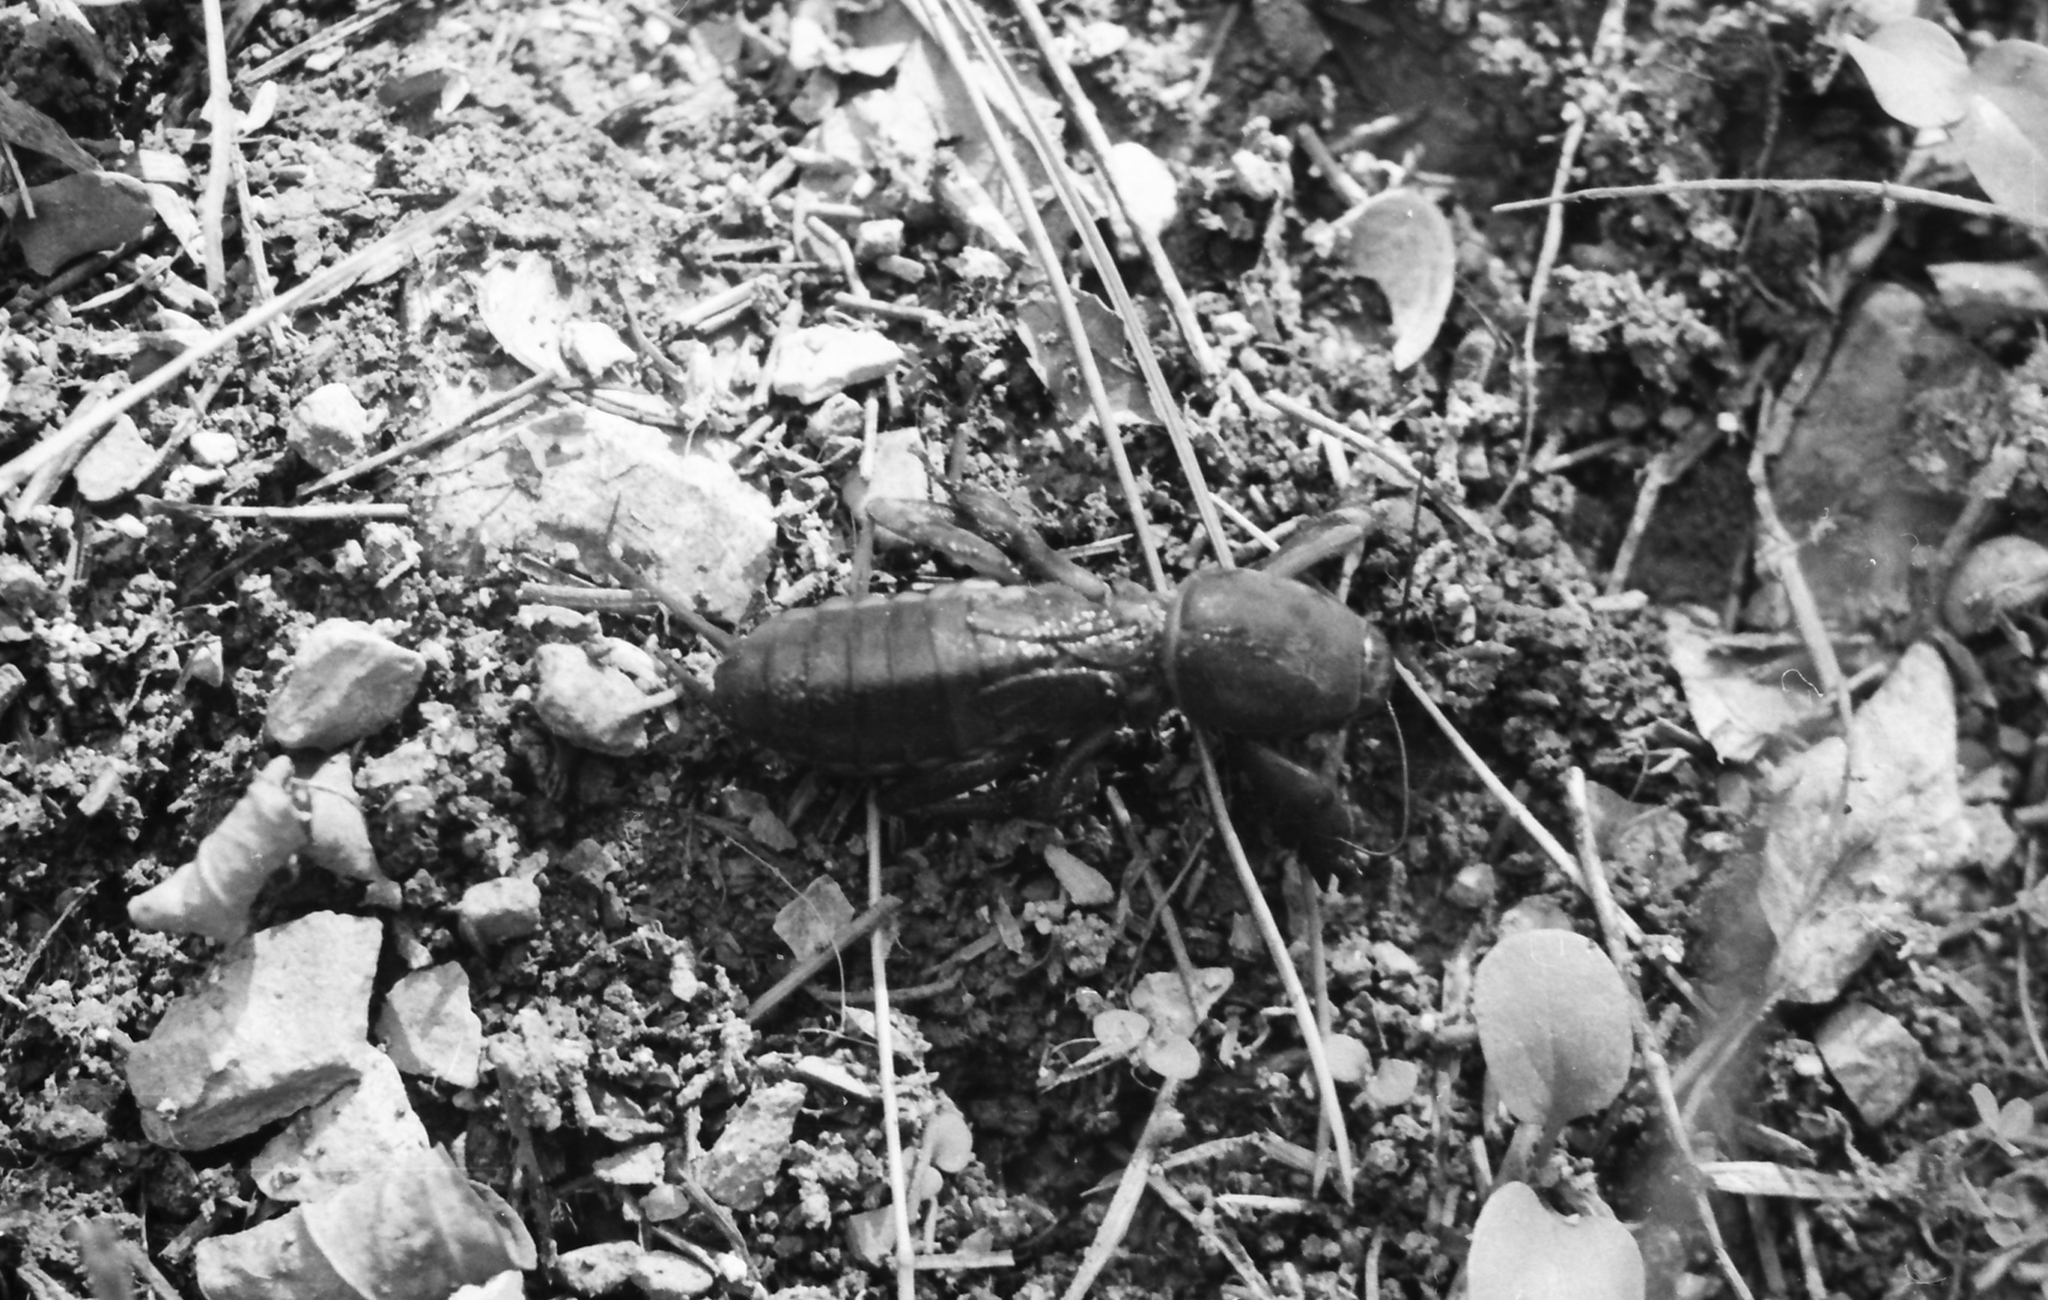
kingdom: Animalia
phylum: Arthropoda
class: Insecta
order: Orthoptera
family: Gryllotalpidae
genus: Gryllotalpa
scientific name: Gryllotalpa gryllotalpa
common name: European mole cricket
